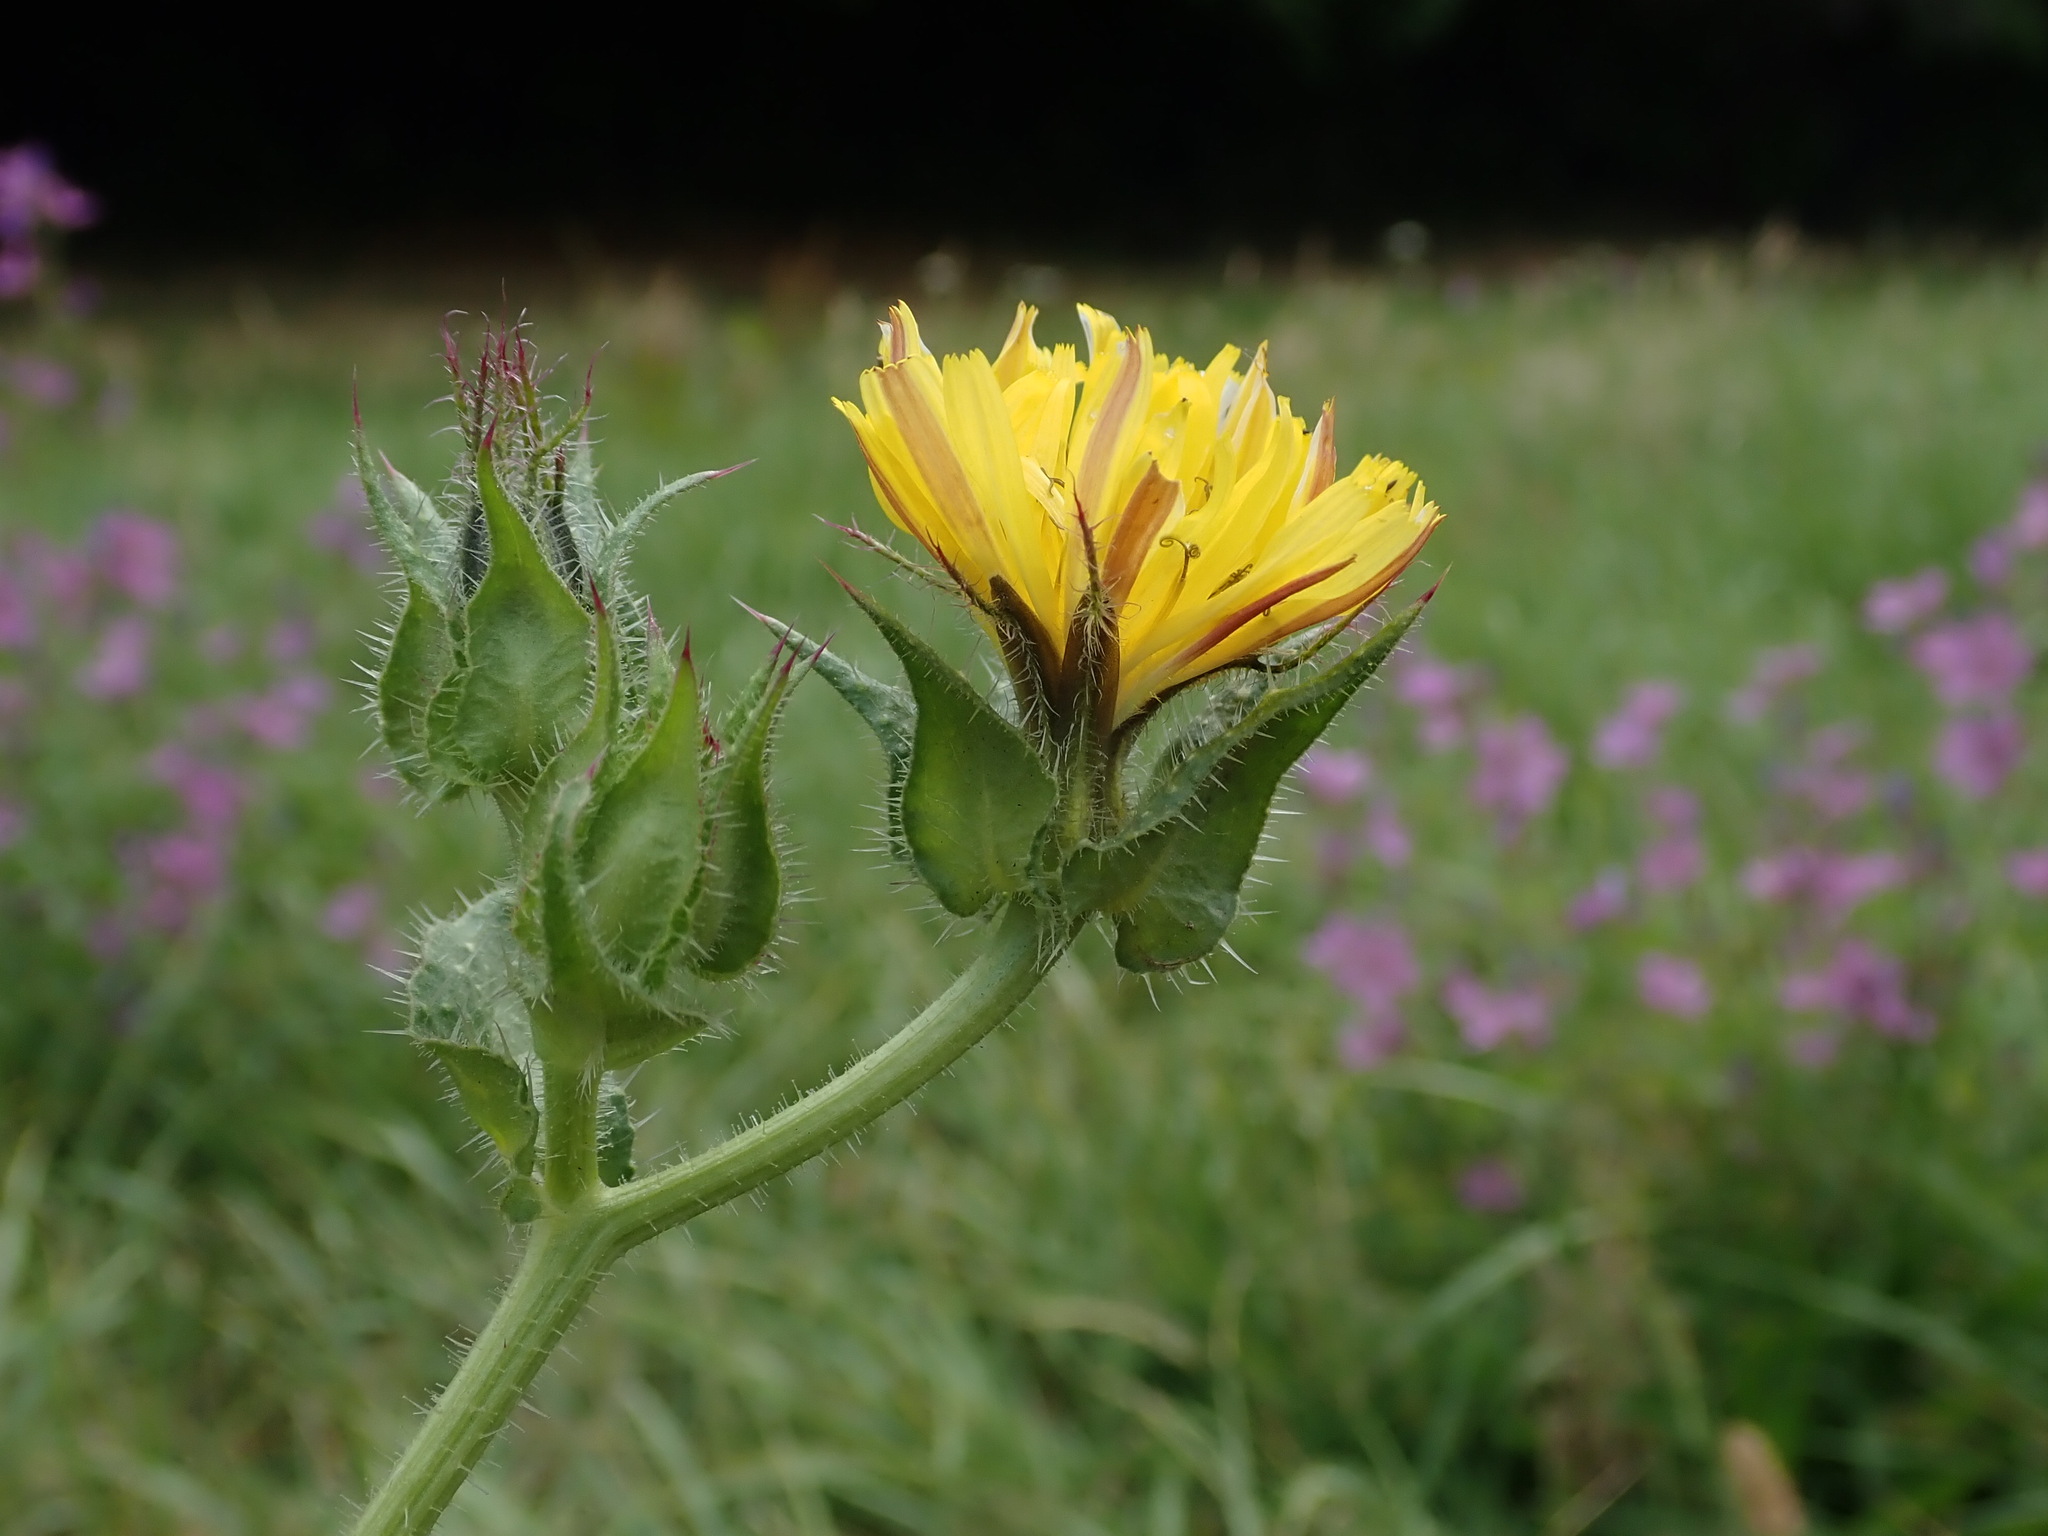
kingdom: Plantae
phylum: Tracheophyta
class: Magnoliopsida
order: Asterales
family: Asteraceae
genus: Helminthotheca
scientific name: Helminthotheca echioides
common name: Ox-tongue
